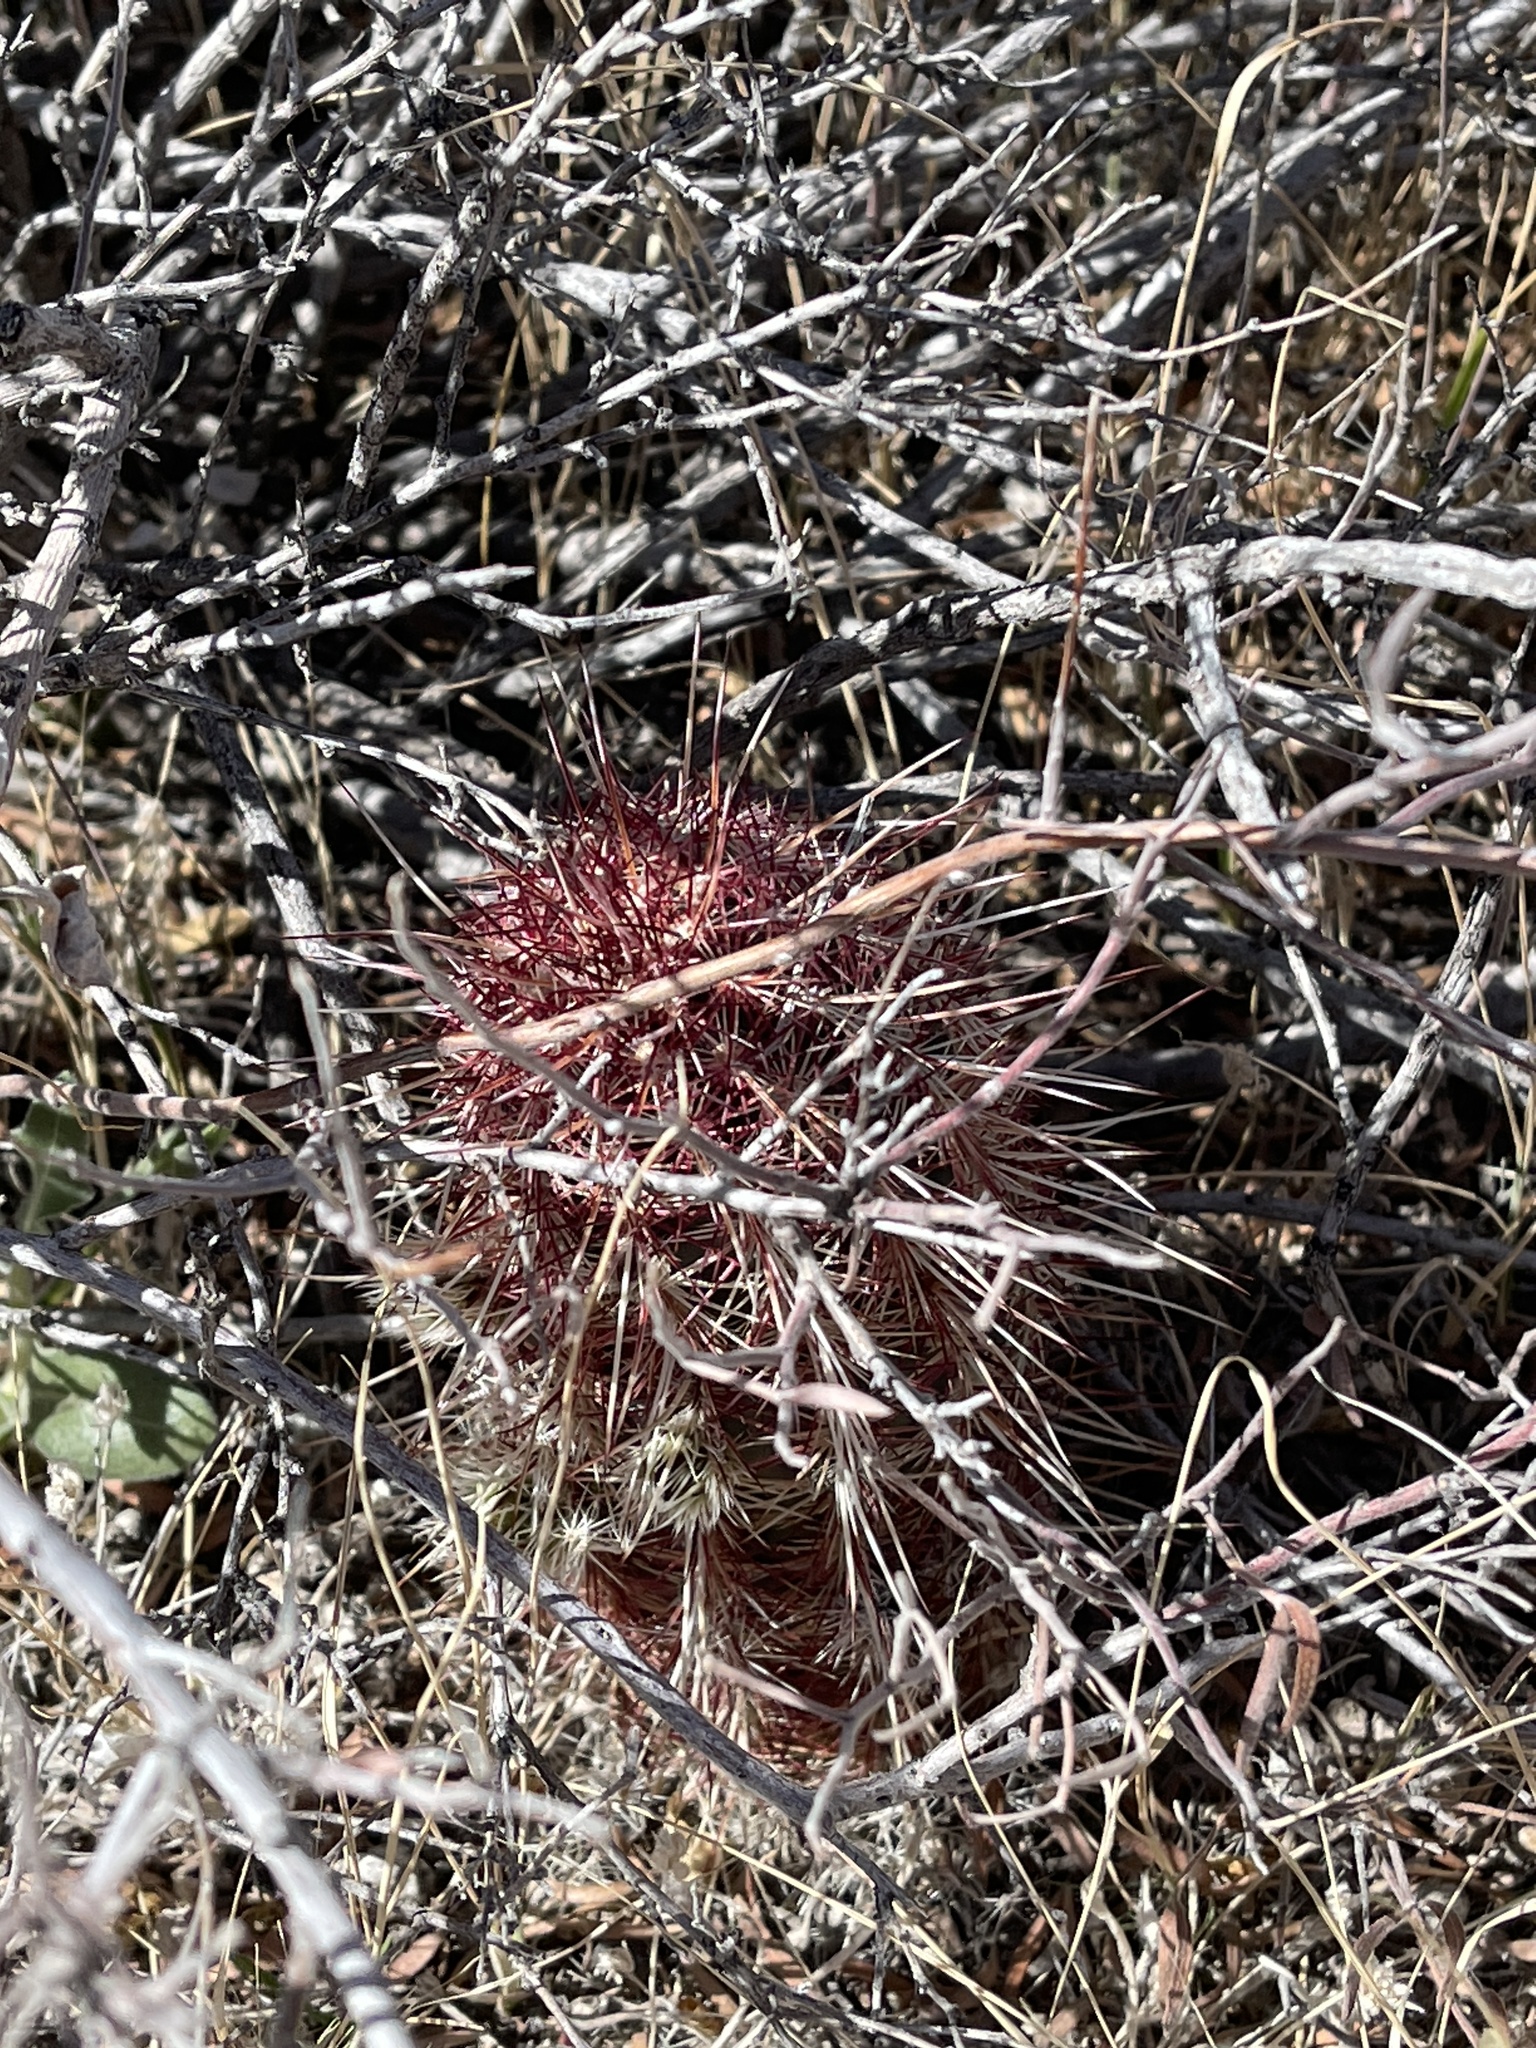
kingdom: Plantae
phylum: Tracheophyta
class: Magnoliopsida
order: Caryophyllales
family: Cactaceae
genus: Echinocereus
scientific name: Echinocereus viridiflorus
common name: Nylon hedgehog cactus
